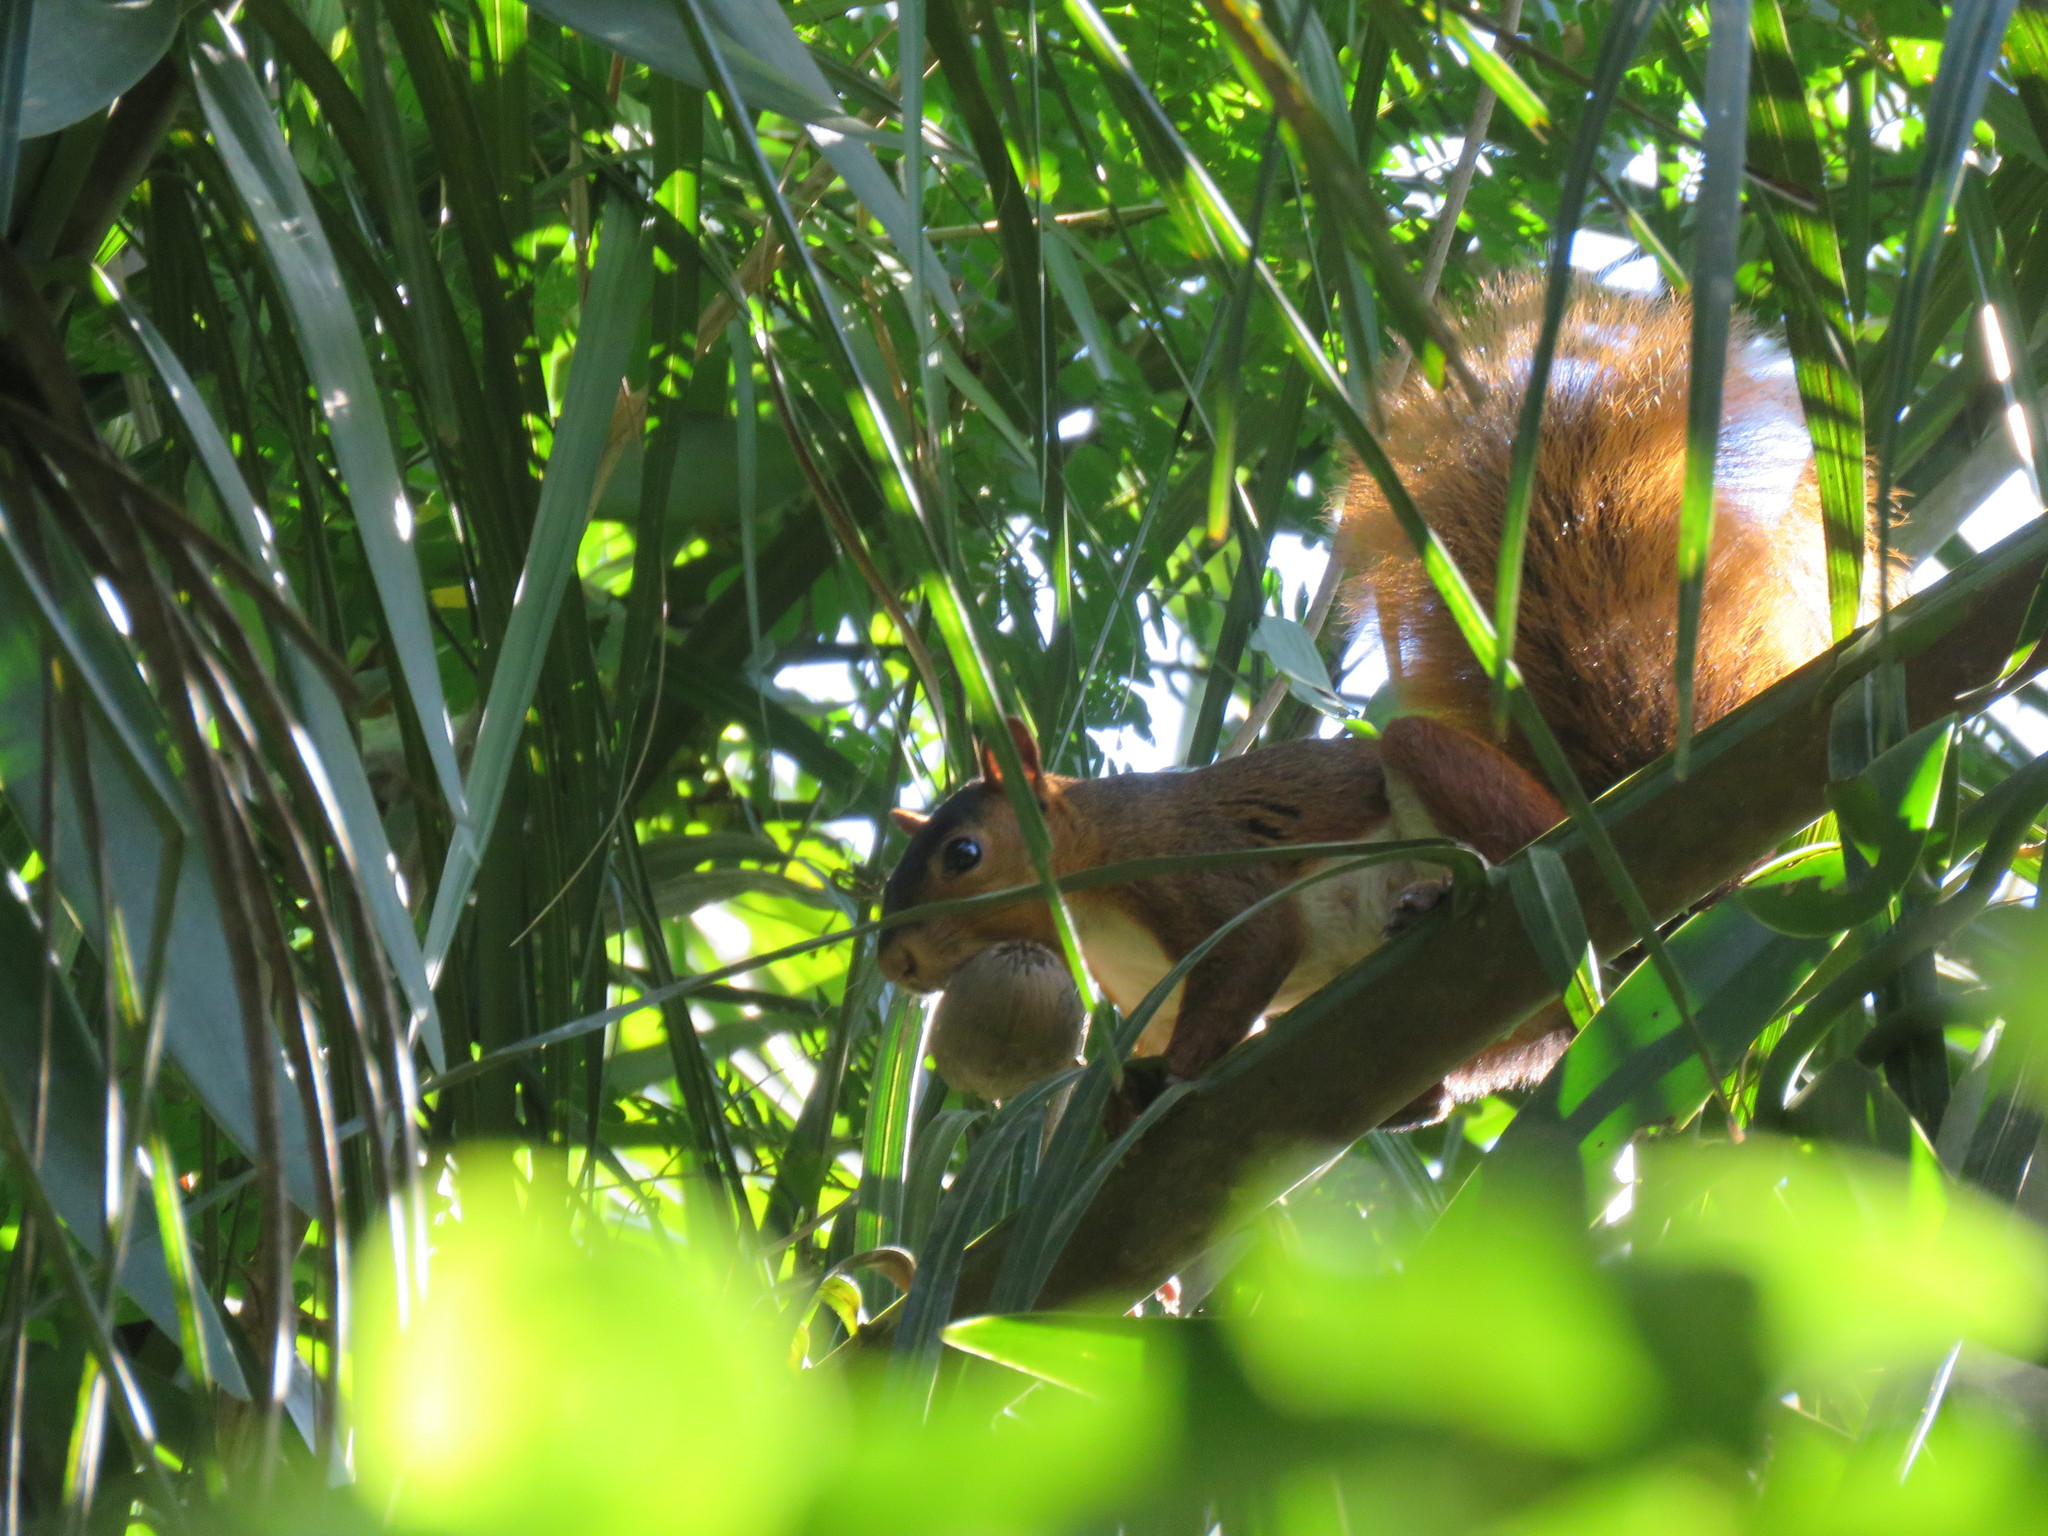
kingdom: Animalia
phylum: Chordata
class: Mammalia
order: Rodentia
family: Sciuridae
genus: Sciurus
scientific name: Sciurus spadiceus
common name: Southern amazon red squirrel
